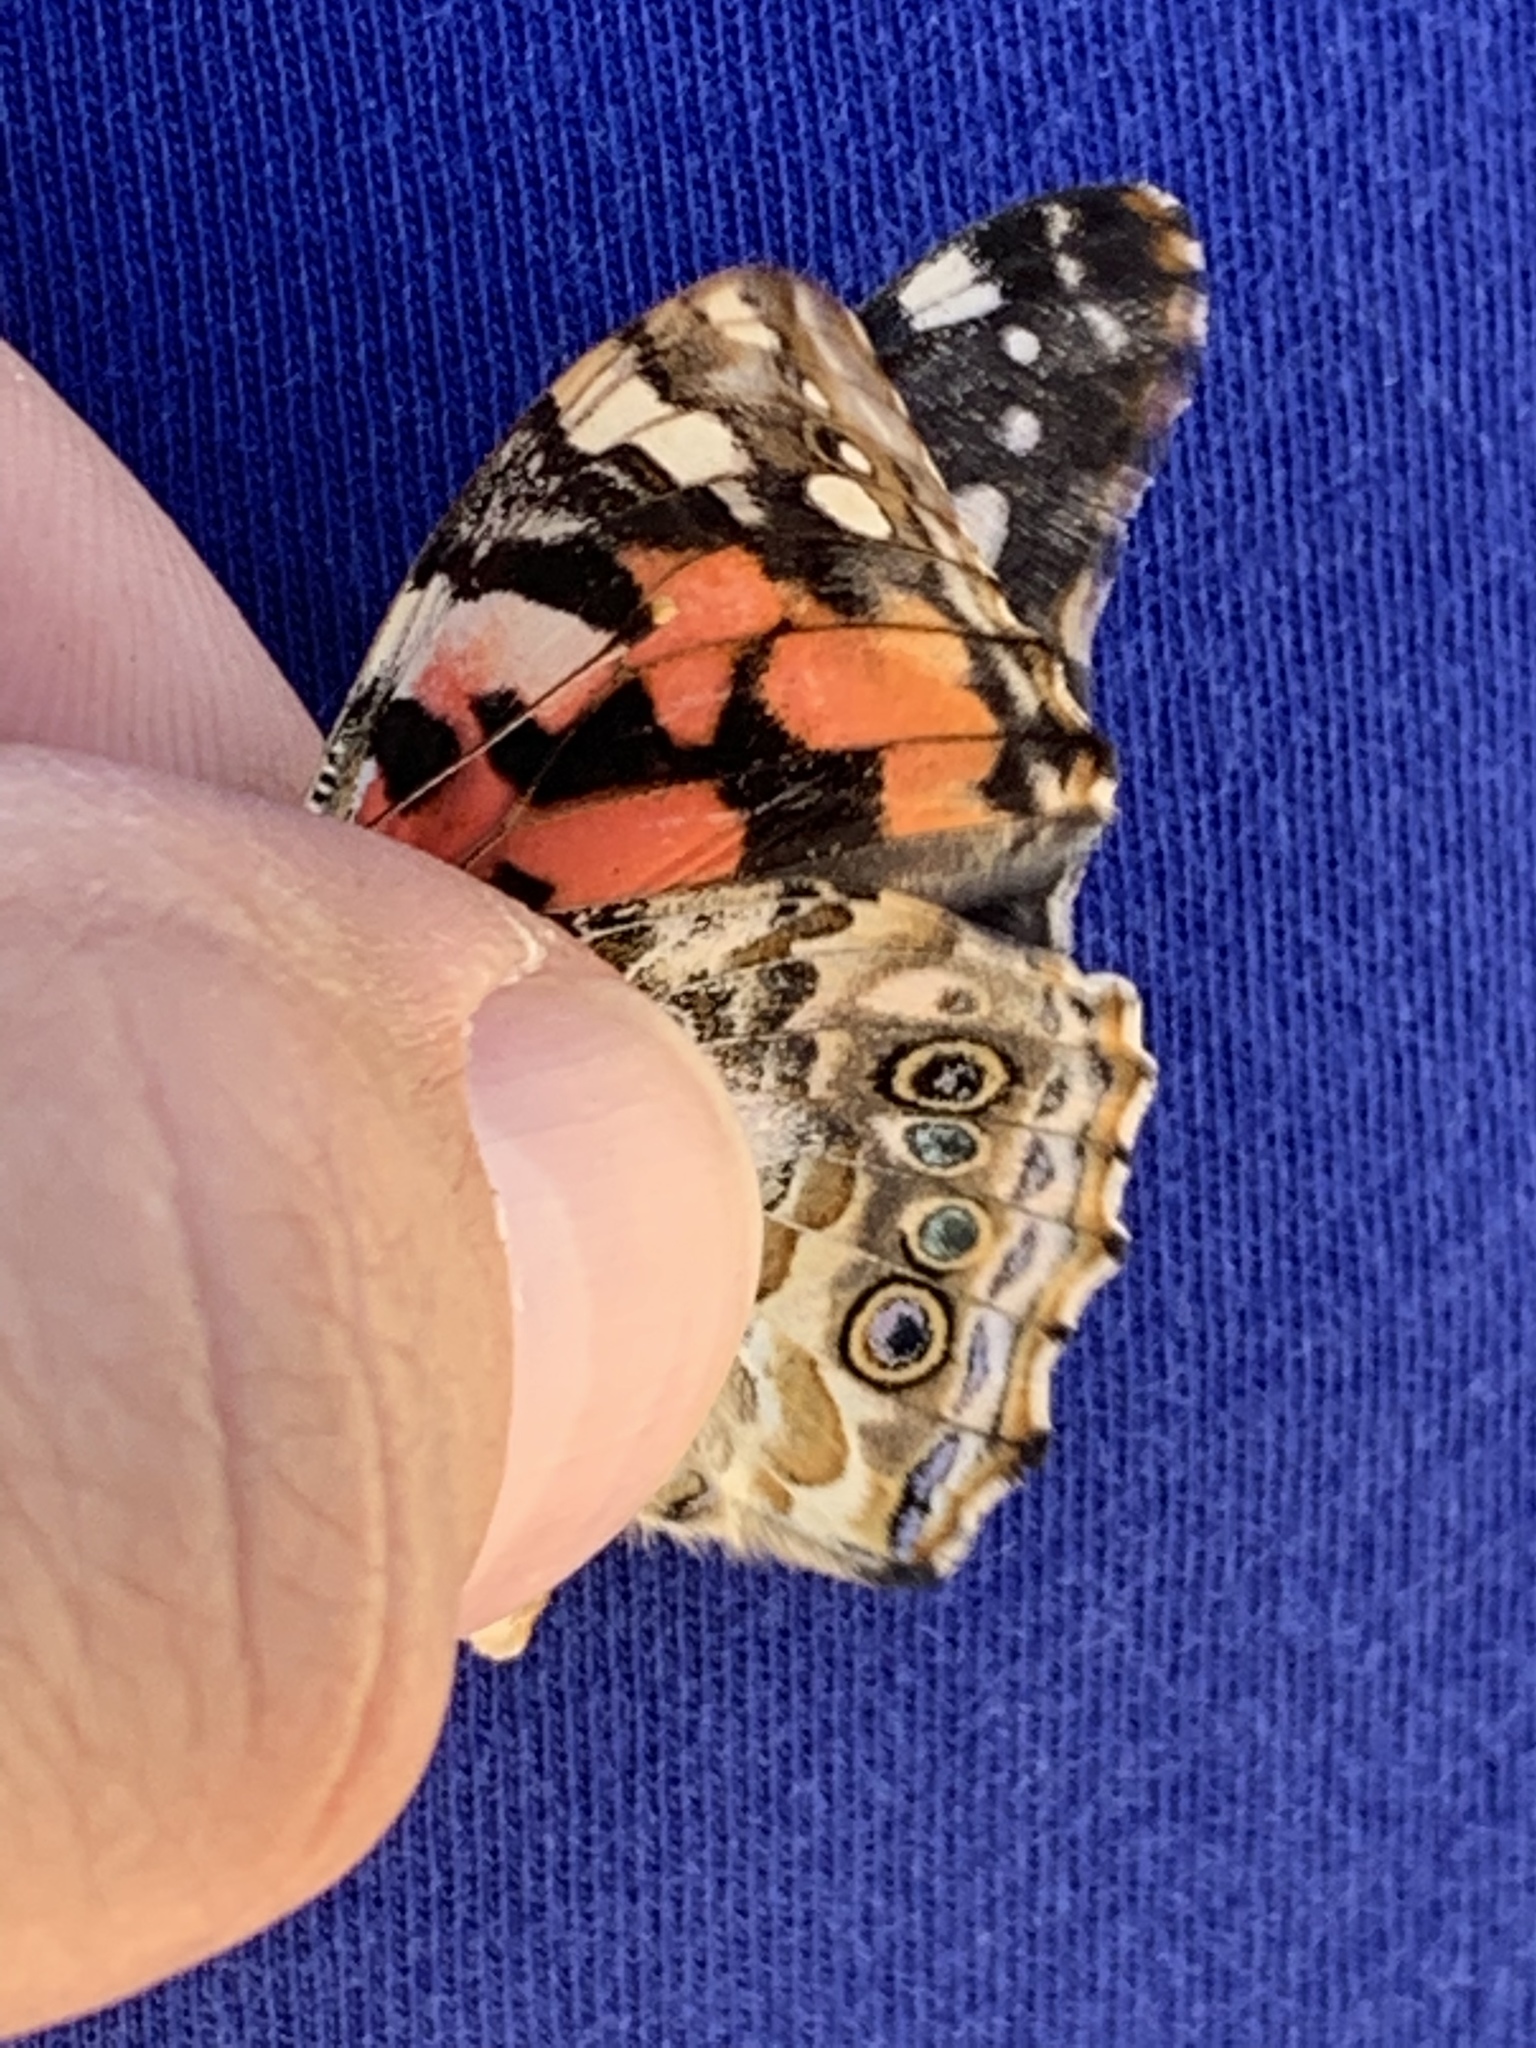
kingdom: Animalia
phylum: Arthropoda
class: Insecta
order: Lepidoptera
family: Nymphalidae
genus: Vanessa
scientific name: Vanessa cardui
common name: Painted lady
